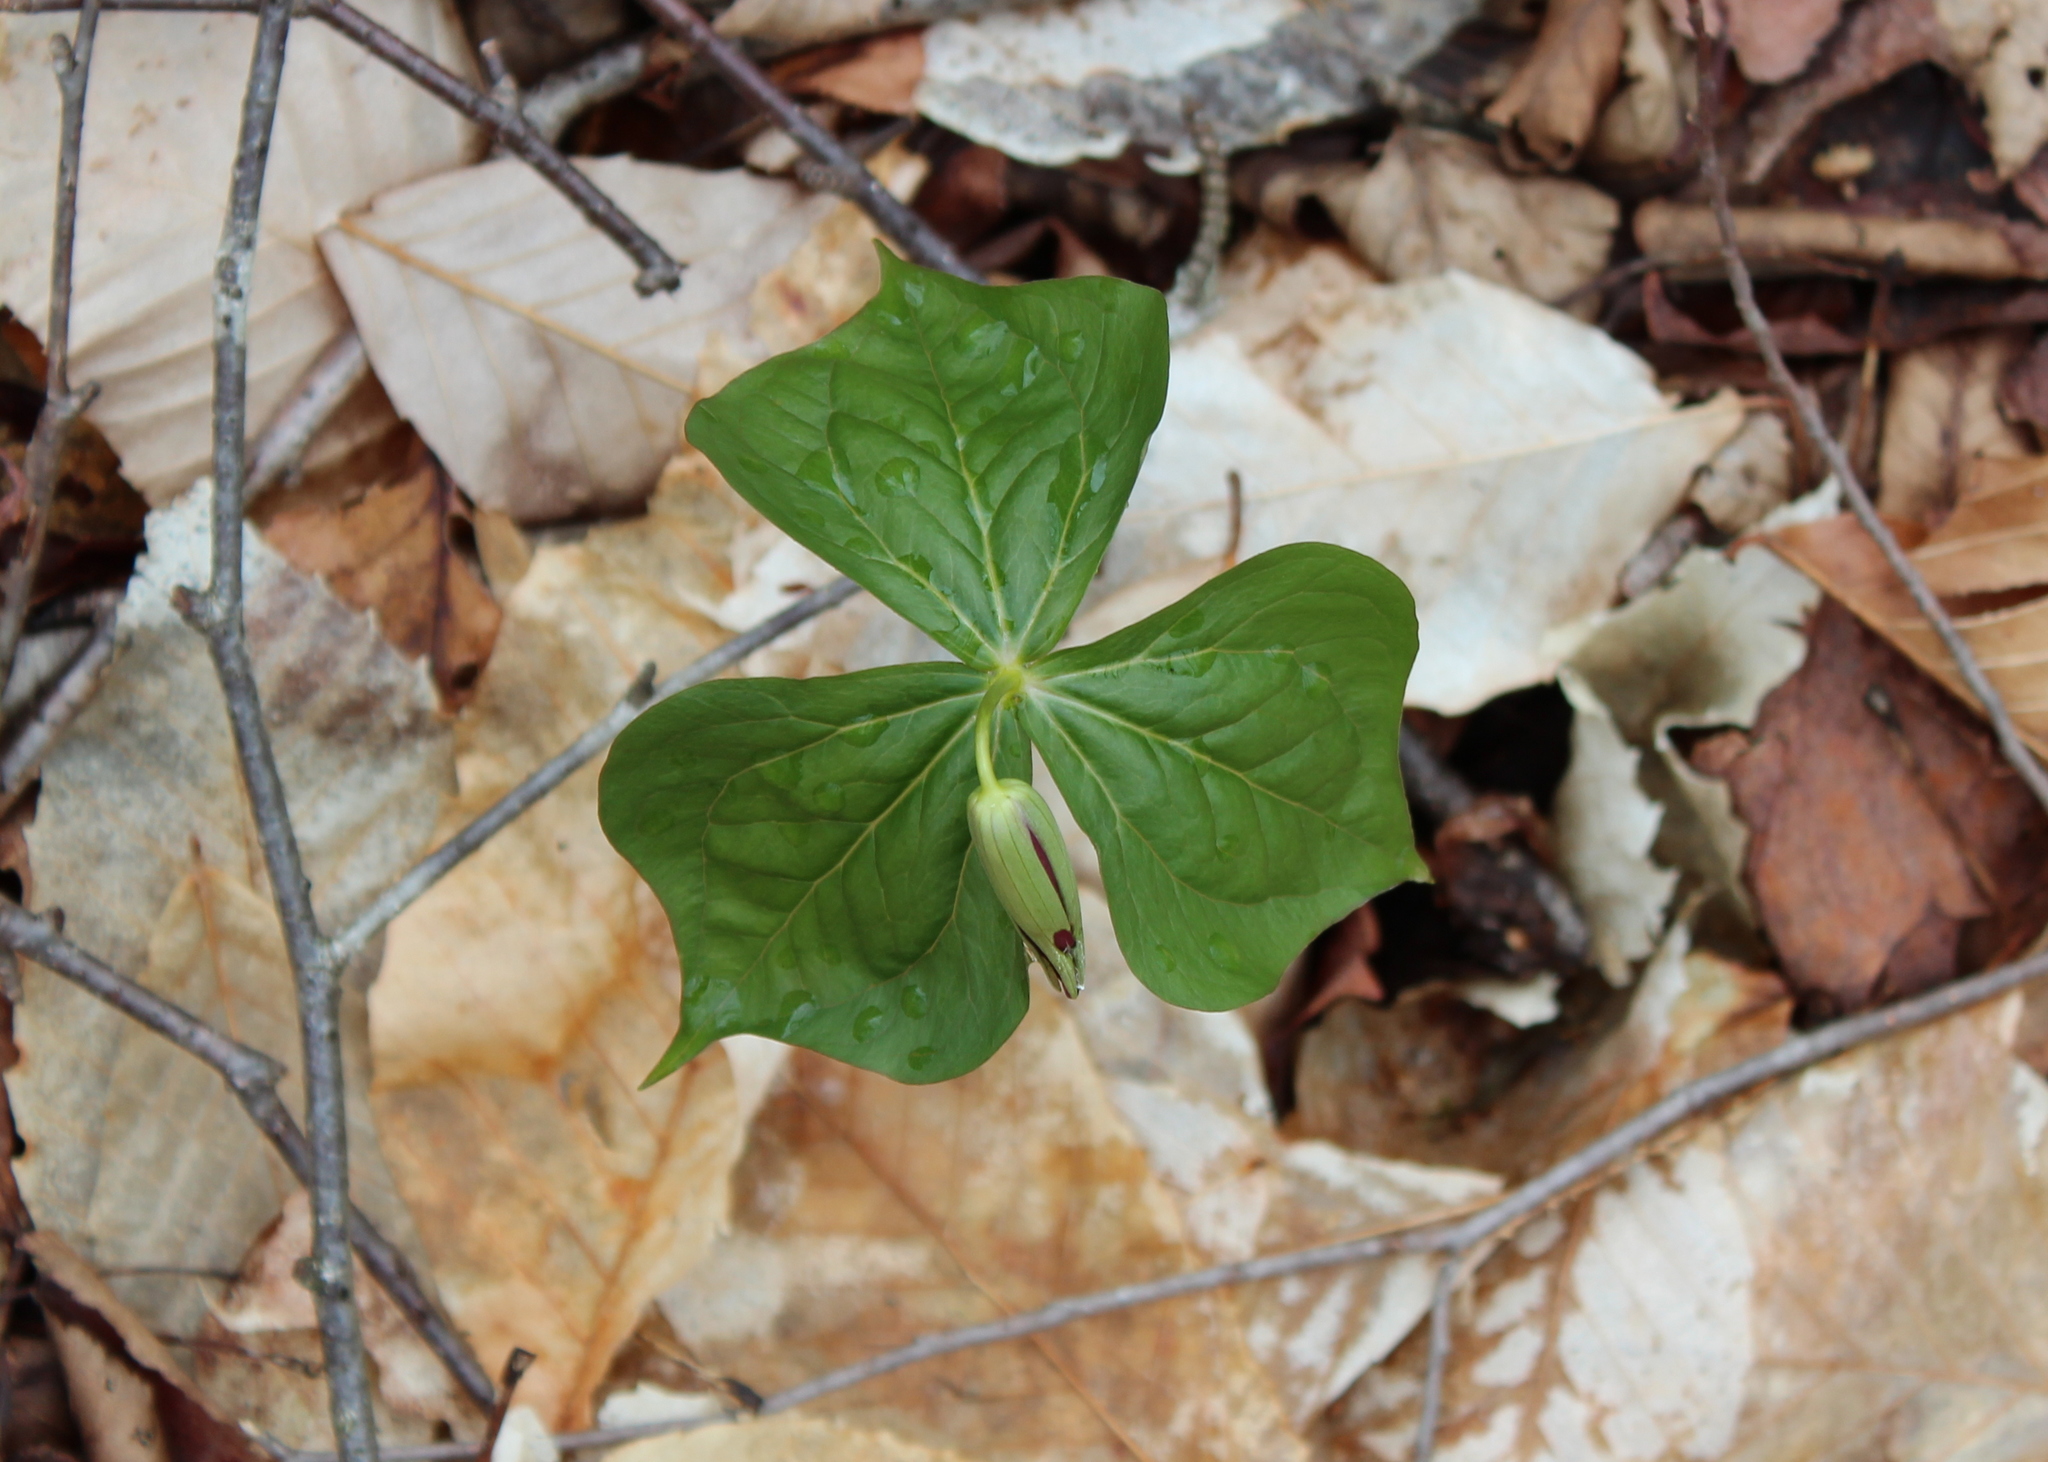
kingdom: Plantae
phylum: Tracheophyta
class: Liliopsida
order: Liliales
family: Melanthiaceae
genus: Trillium
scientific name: Trillium erectum
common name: Purple trillium
